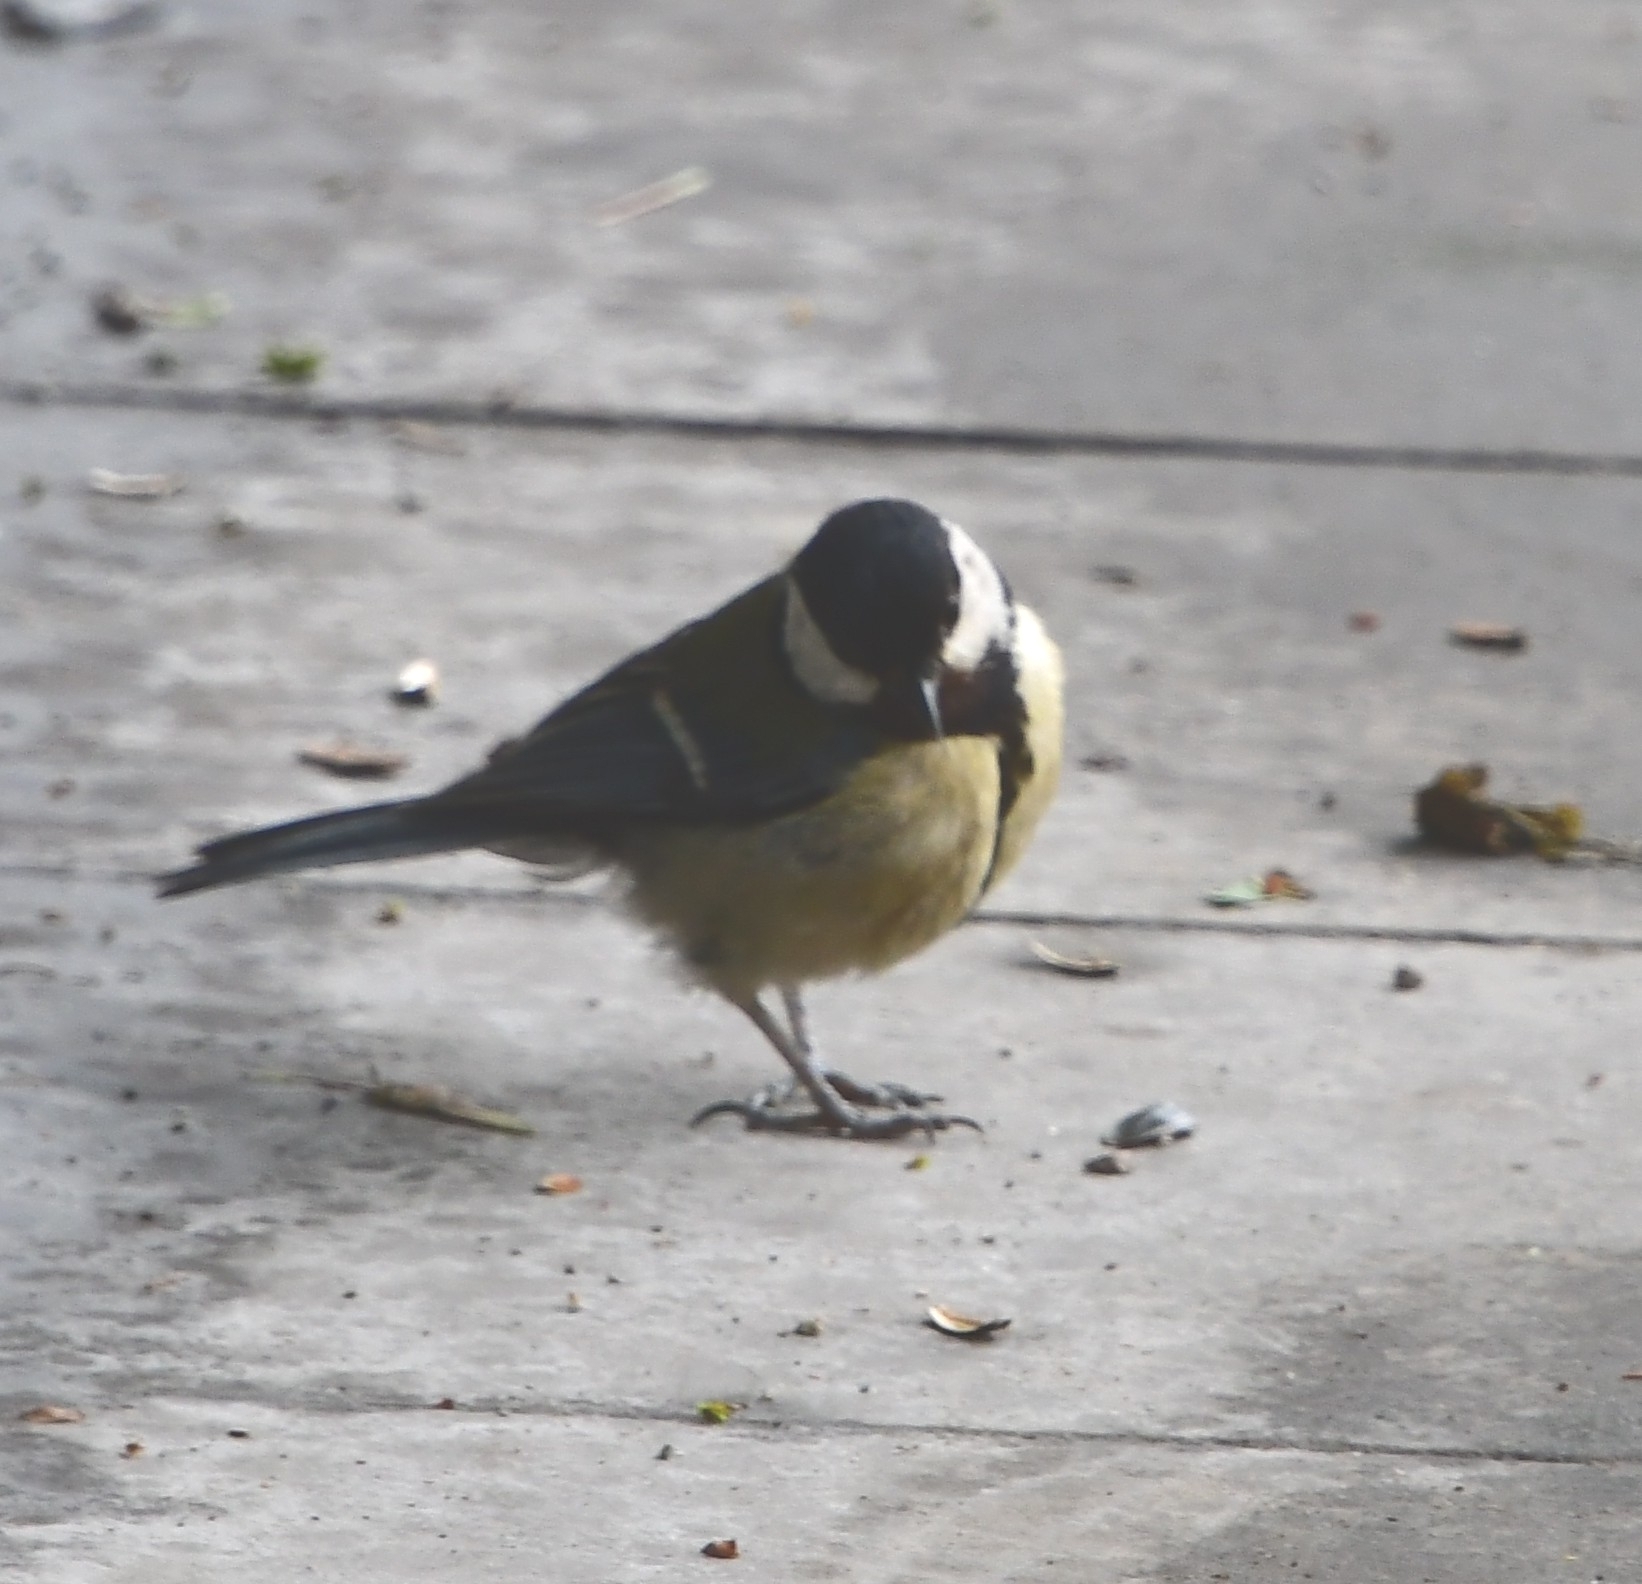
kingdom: Animalia
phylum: Chordata
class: Aves
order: Passeriformes
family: Paridae
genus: Parus
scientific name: Parus major
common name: Great tit
